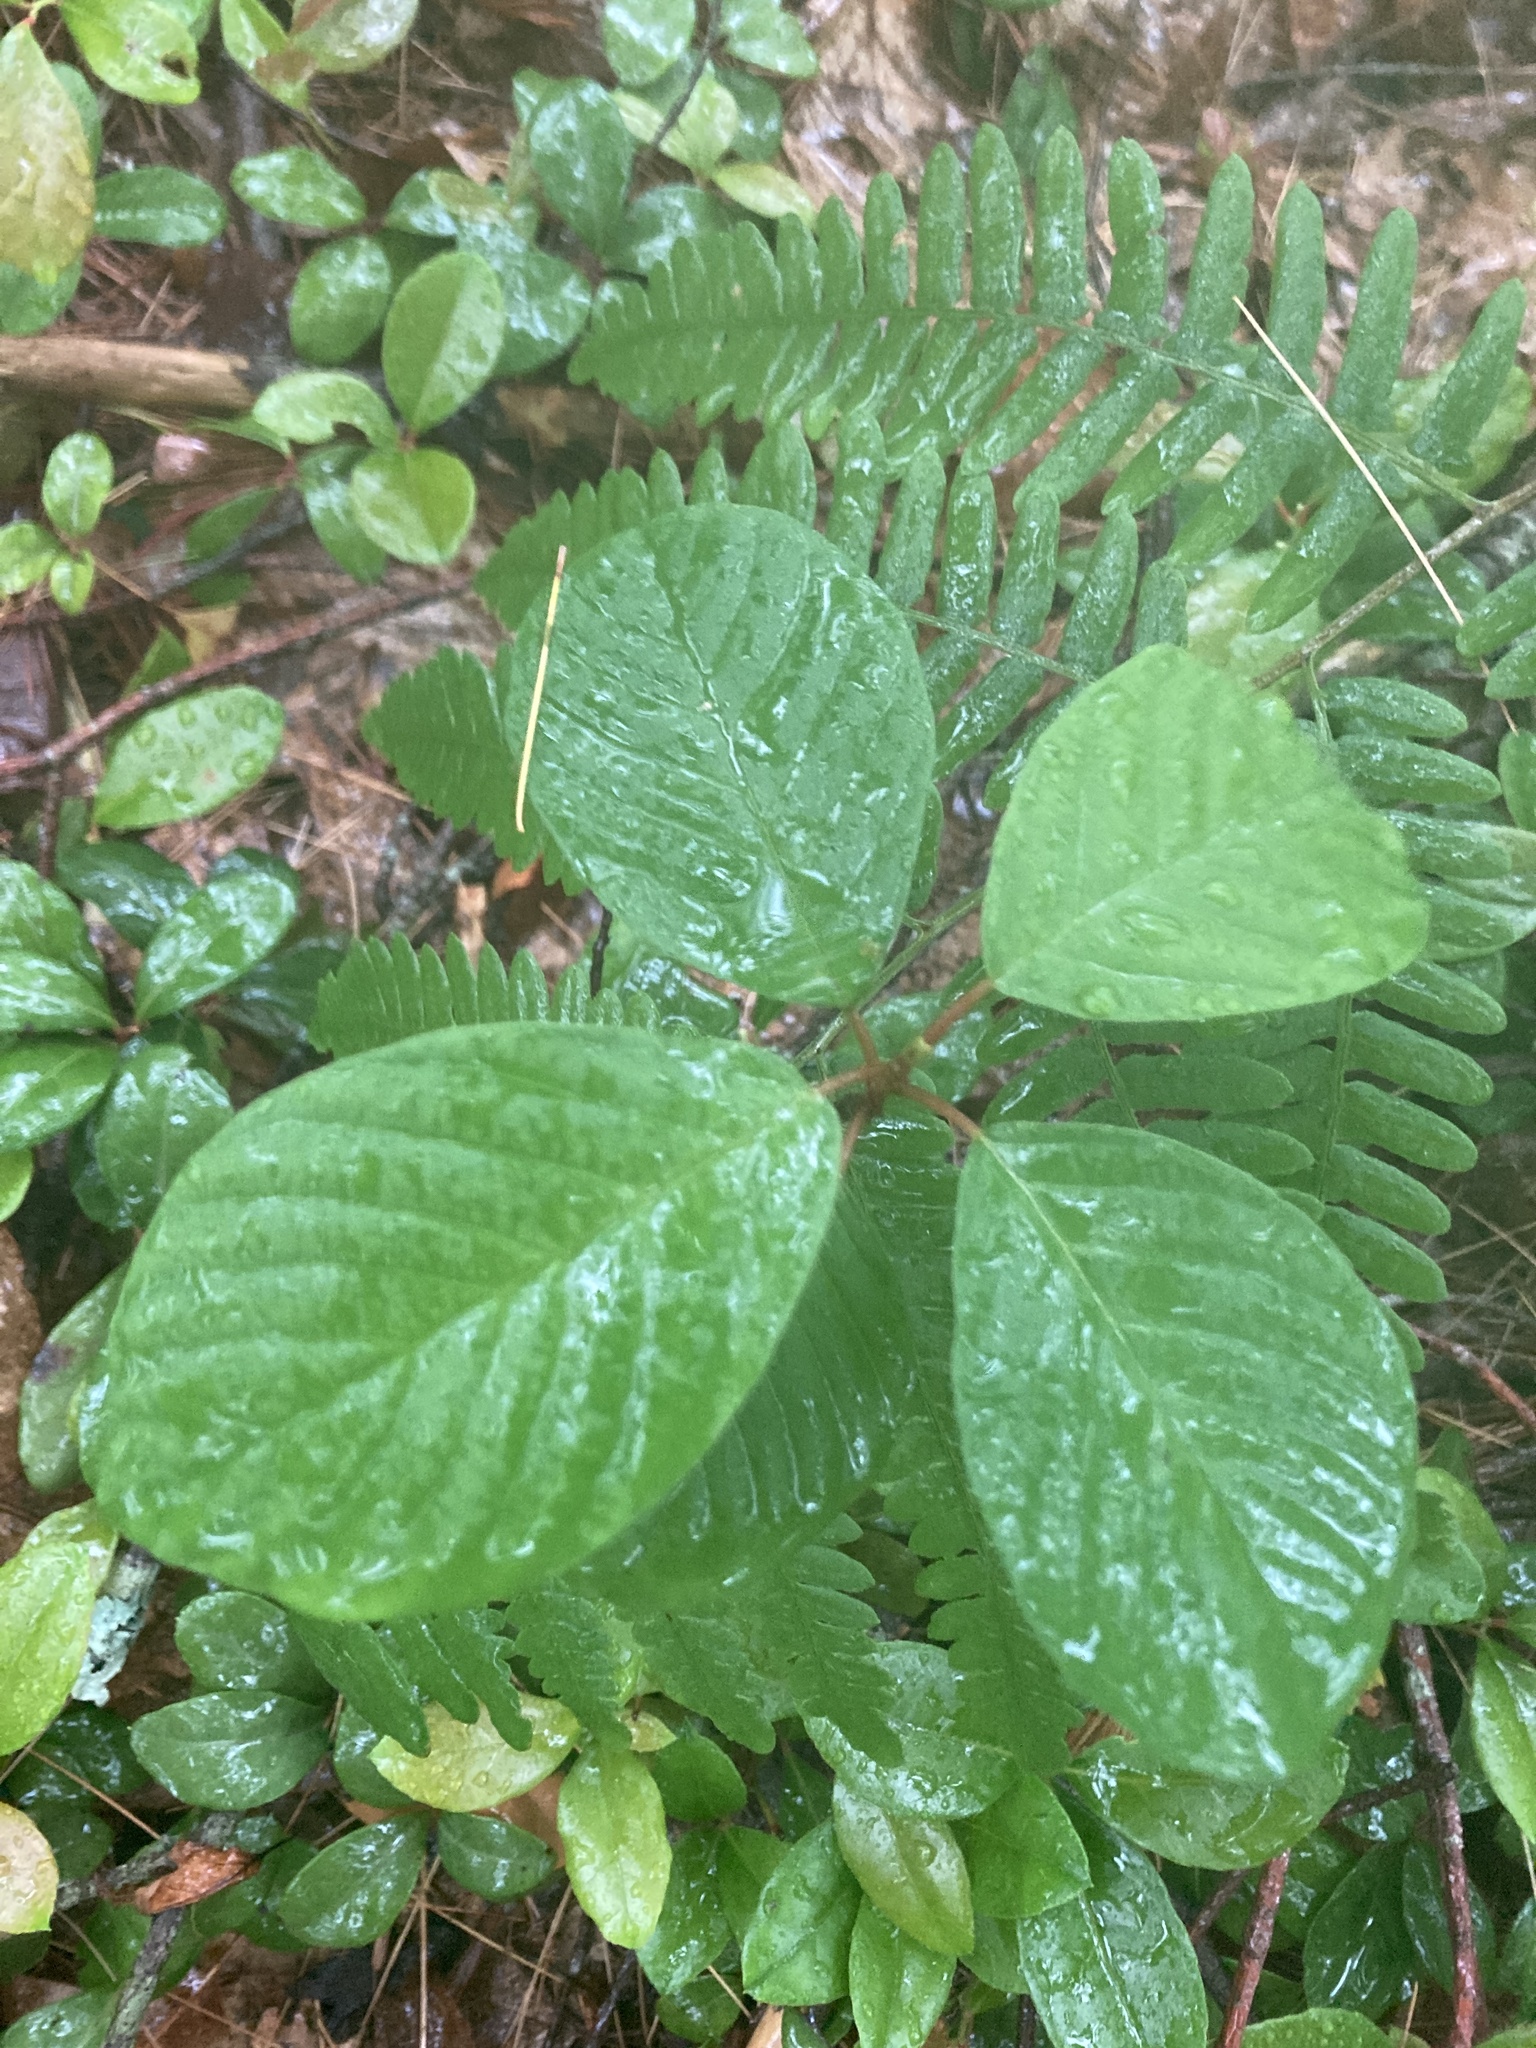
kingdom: Plantae
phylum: Tracheophyta
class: Magnoliopsida
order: Rosales
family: Rhamnaceae
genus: Frangula
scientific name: Frangula alnus
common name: Alder buckthorn
